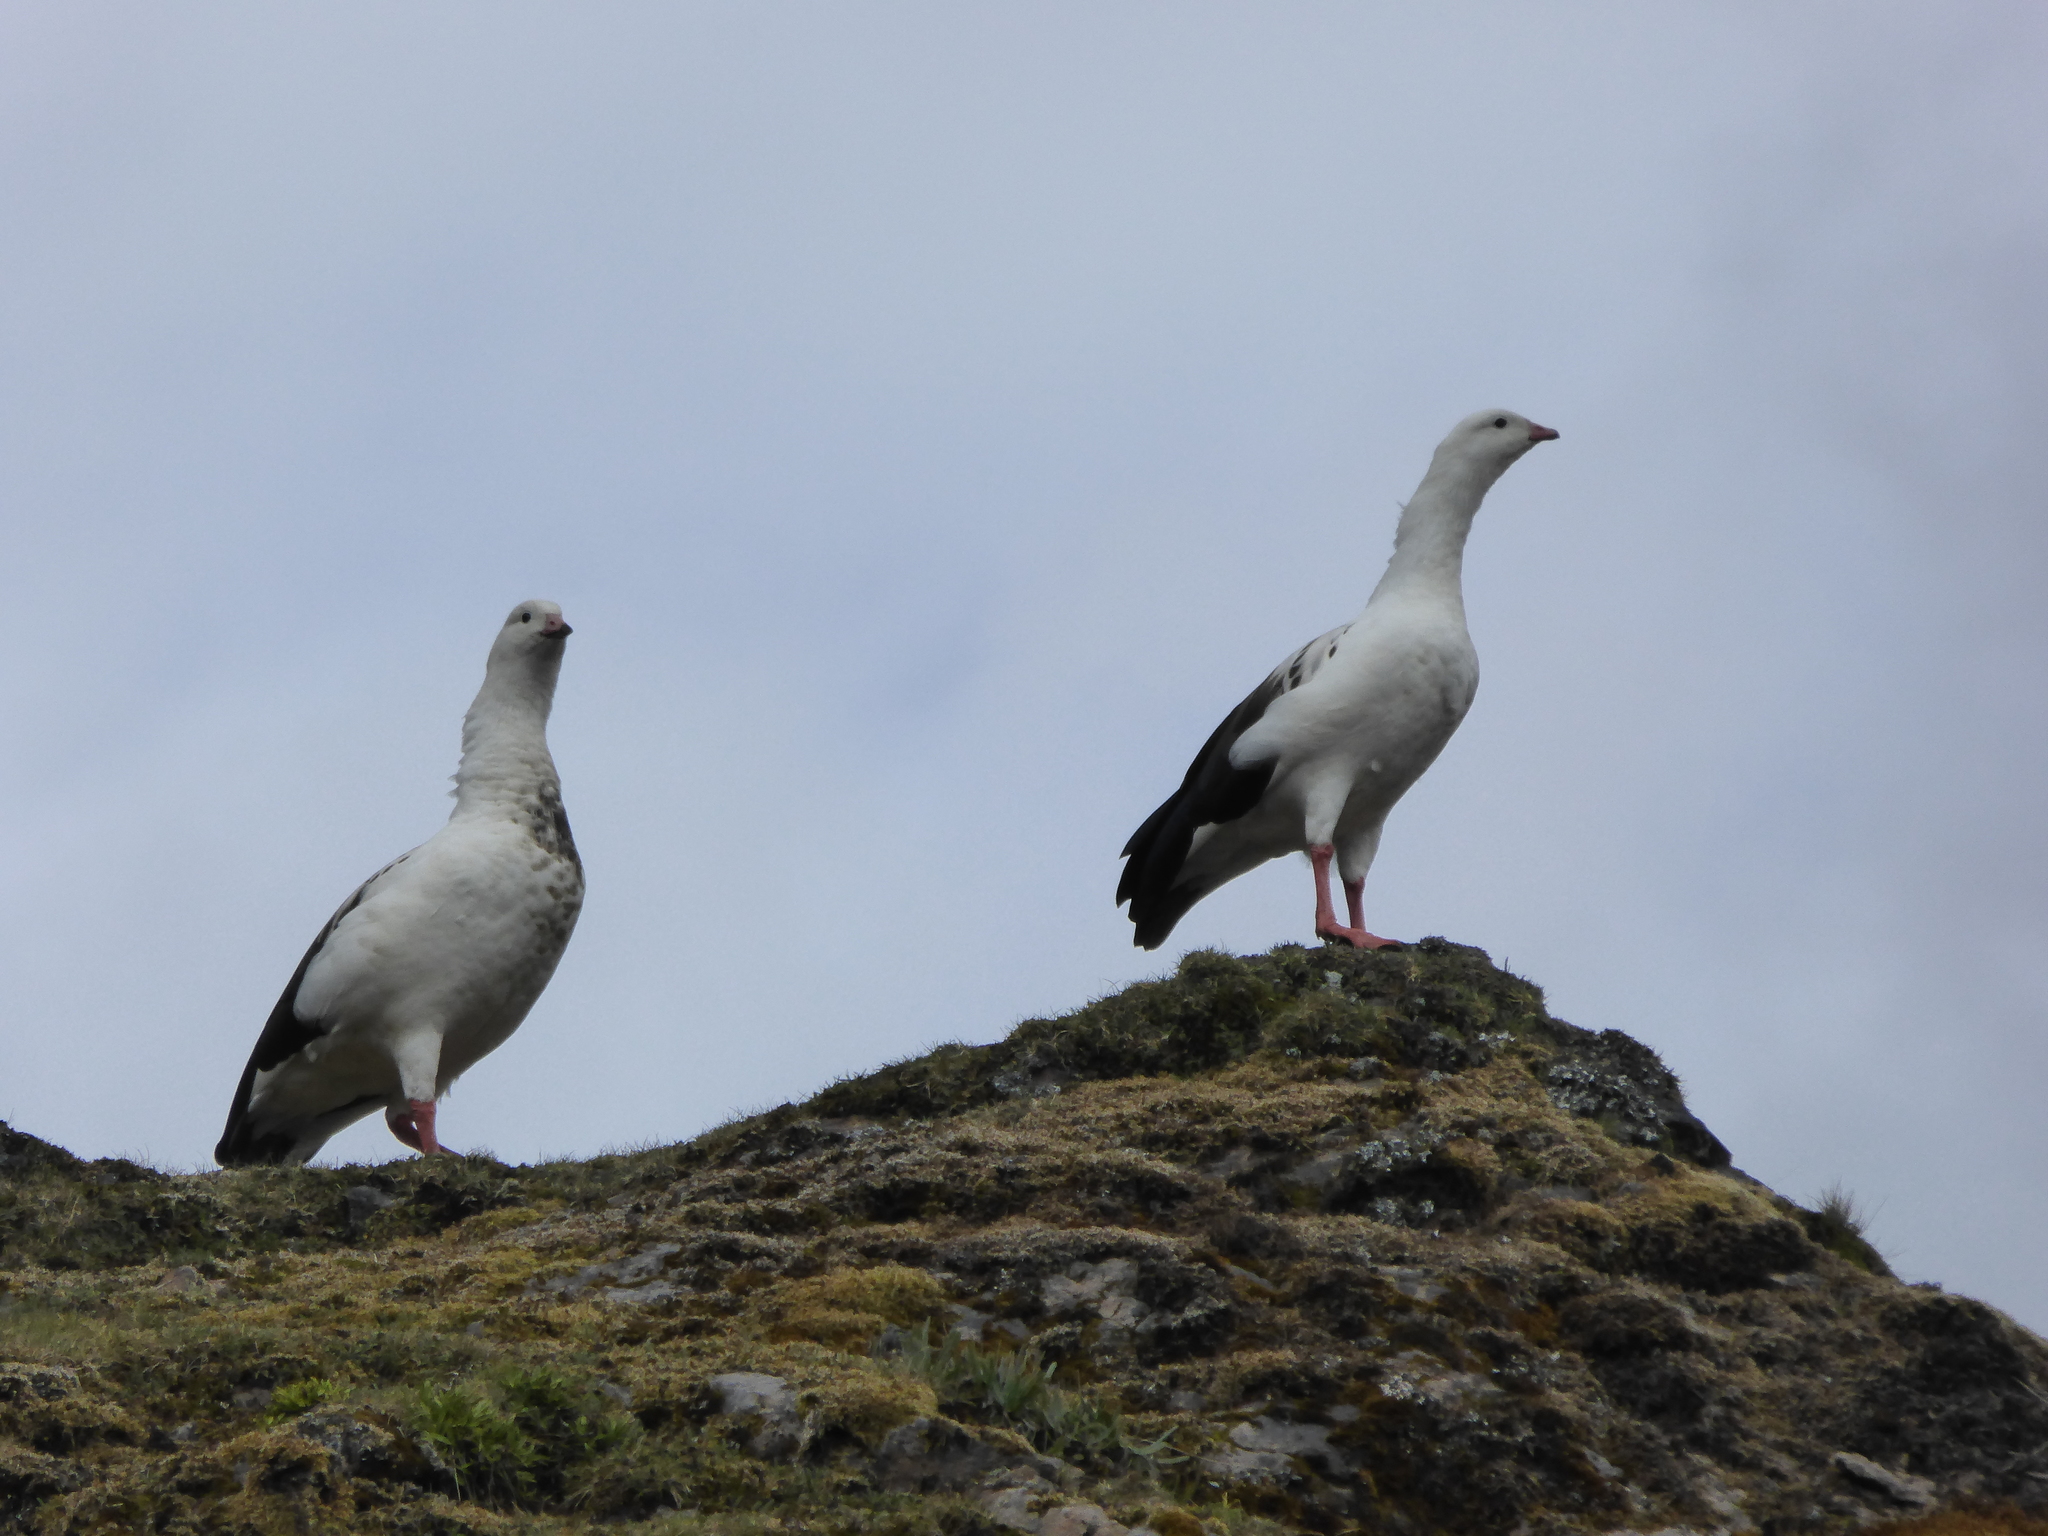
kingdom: Animalia
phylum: Chordata
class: Aves
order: Anseriformes
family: Anatidae
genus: Chloephaga
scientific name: Chloephaga melanoptera
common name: Andean goose
